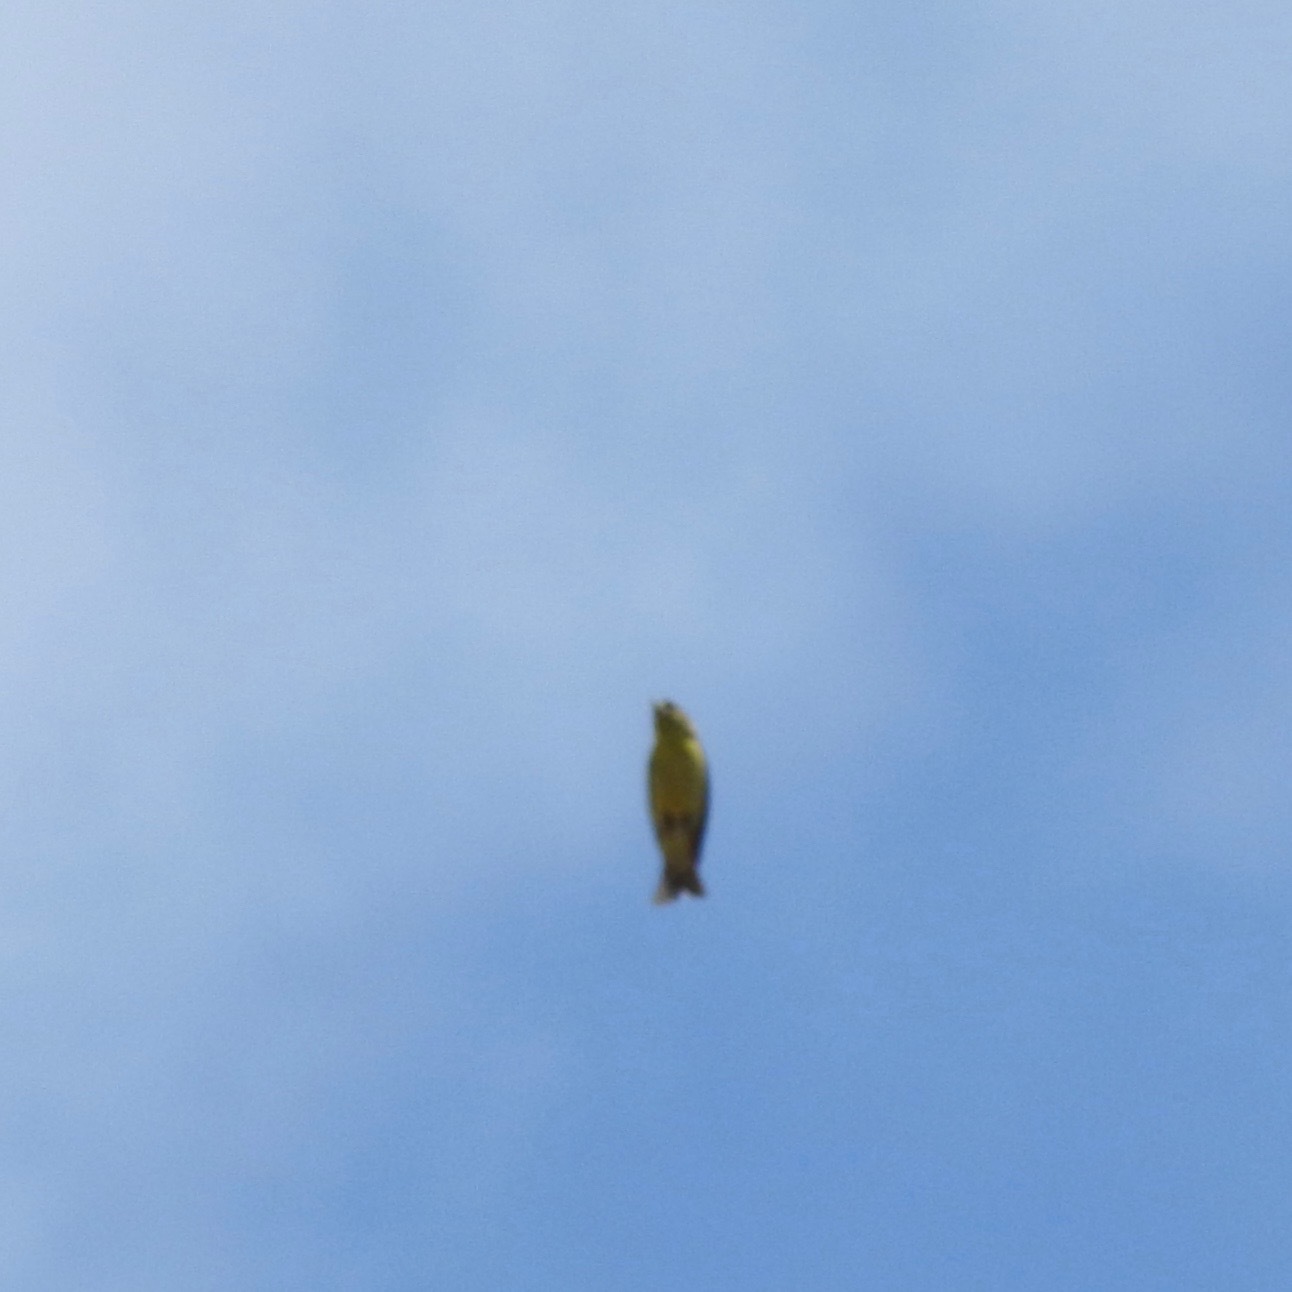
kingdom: Animalia
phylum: Chordata
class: Aves
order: Passeriformes
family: Fringillidae
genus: Spinus
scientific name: Spinus psaltria
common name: Lesser goldfinch
